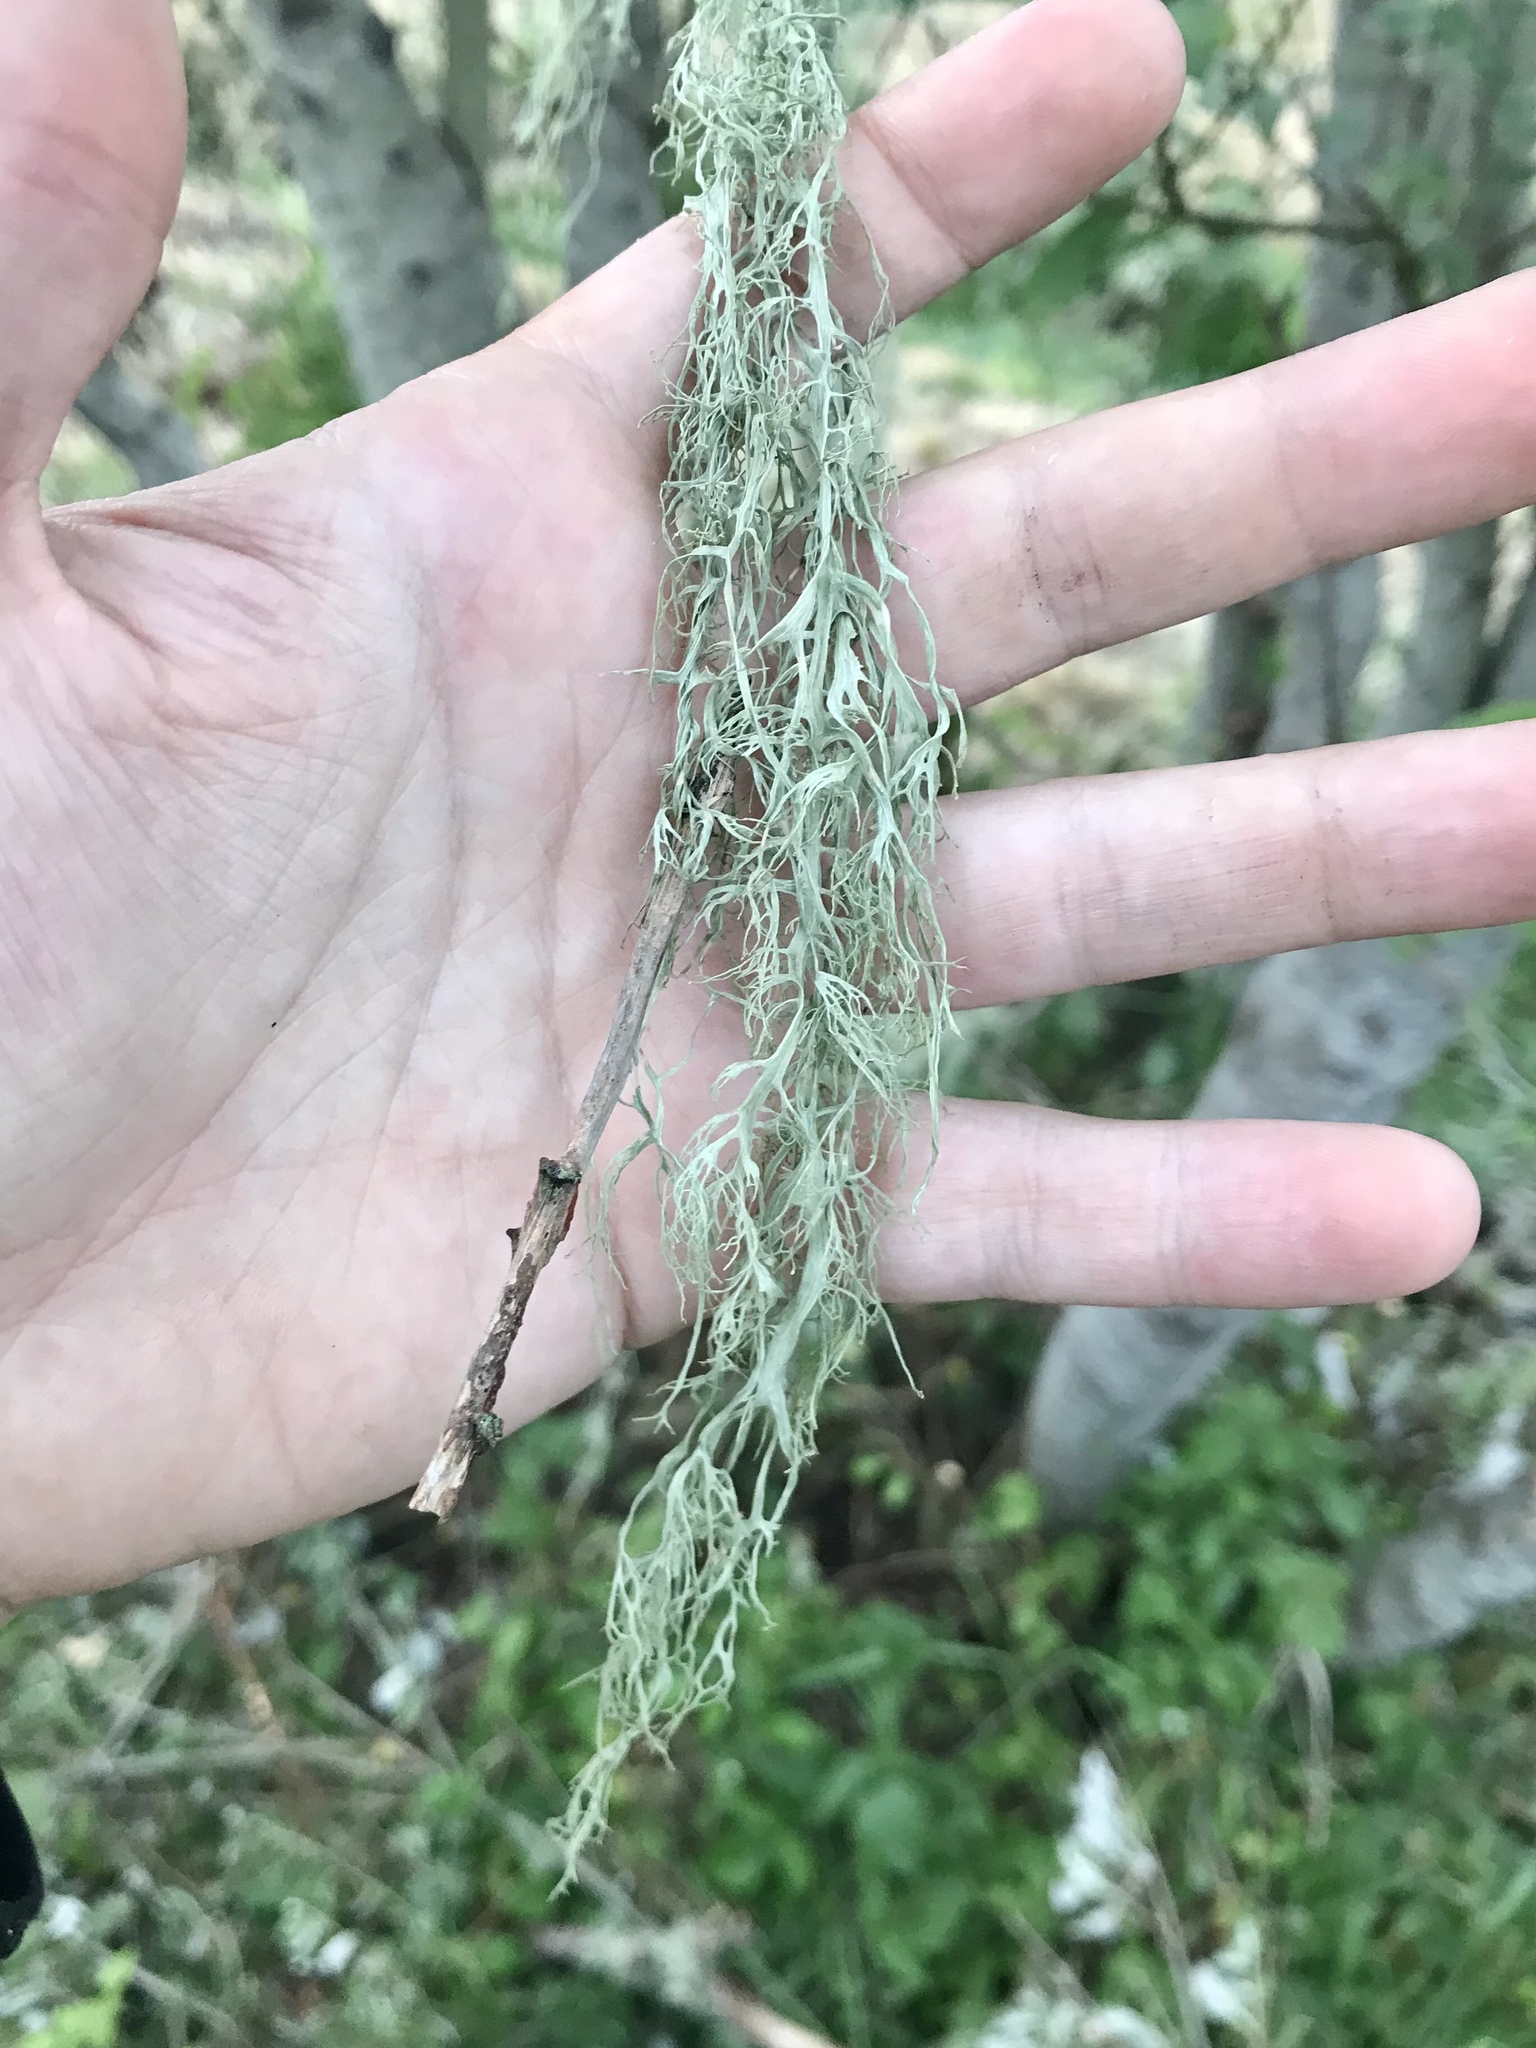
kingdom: Fungi
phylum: Ascomycota
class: Lecanoromycetes
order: Lecanorales
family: Ramalinaceae
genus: Ramalina
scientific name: Ramalina menziesii
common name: Lace lichen
